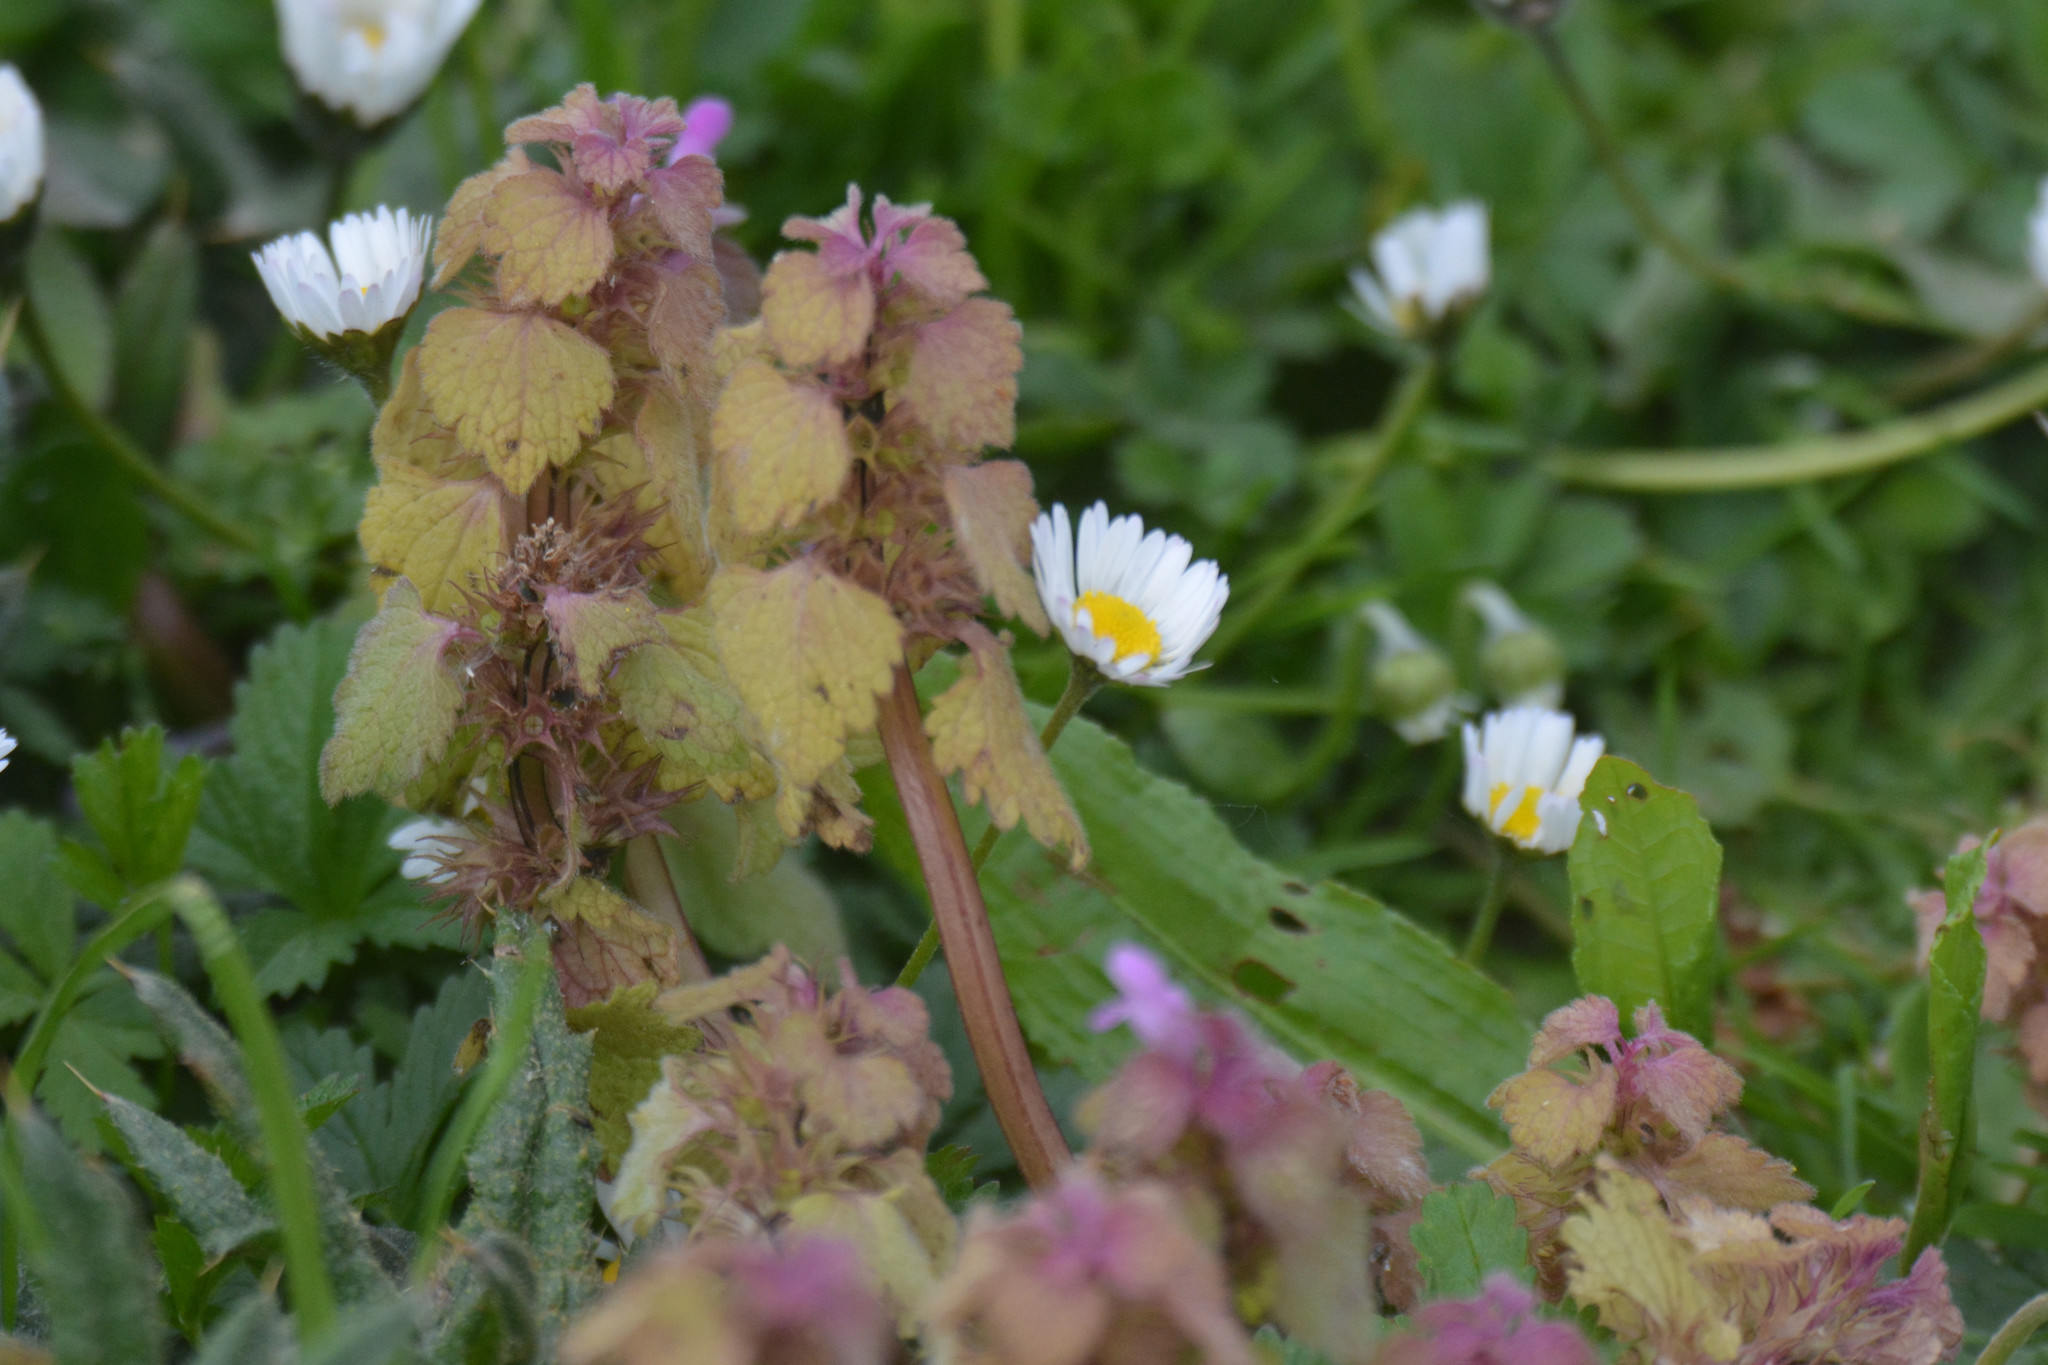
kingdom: Plantae
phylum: Tracheophyta
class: Magnoliopsida
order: Lamiales
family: Lamiaceae
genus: Lamium
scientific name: Lamium purpureum
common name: Red dead-nettle
